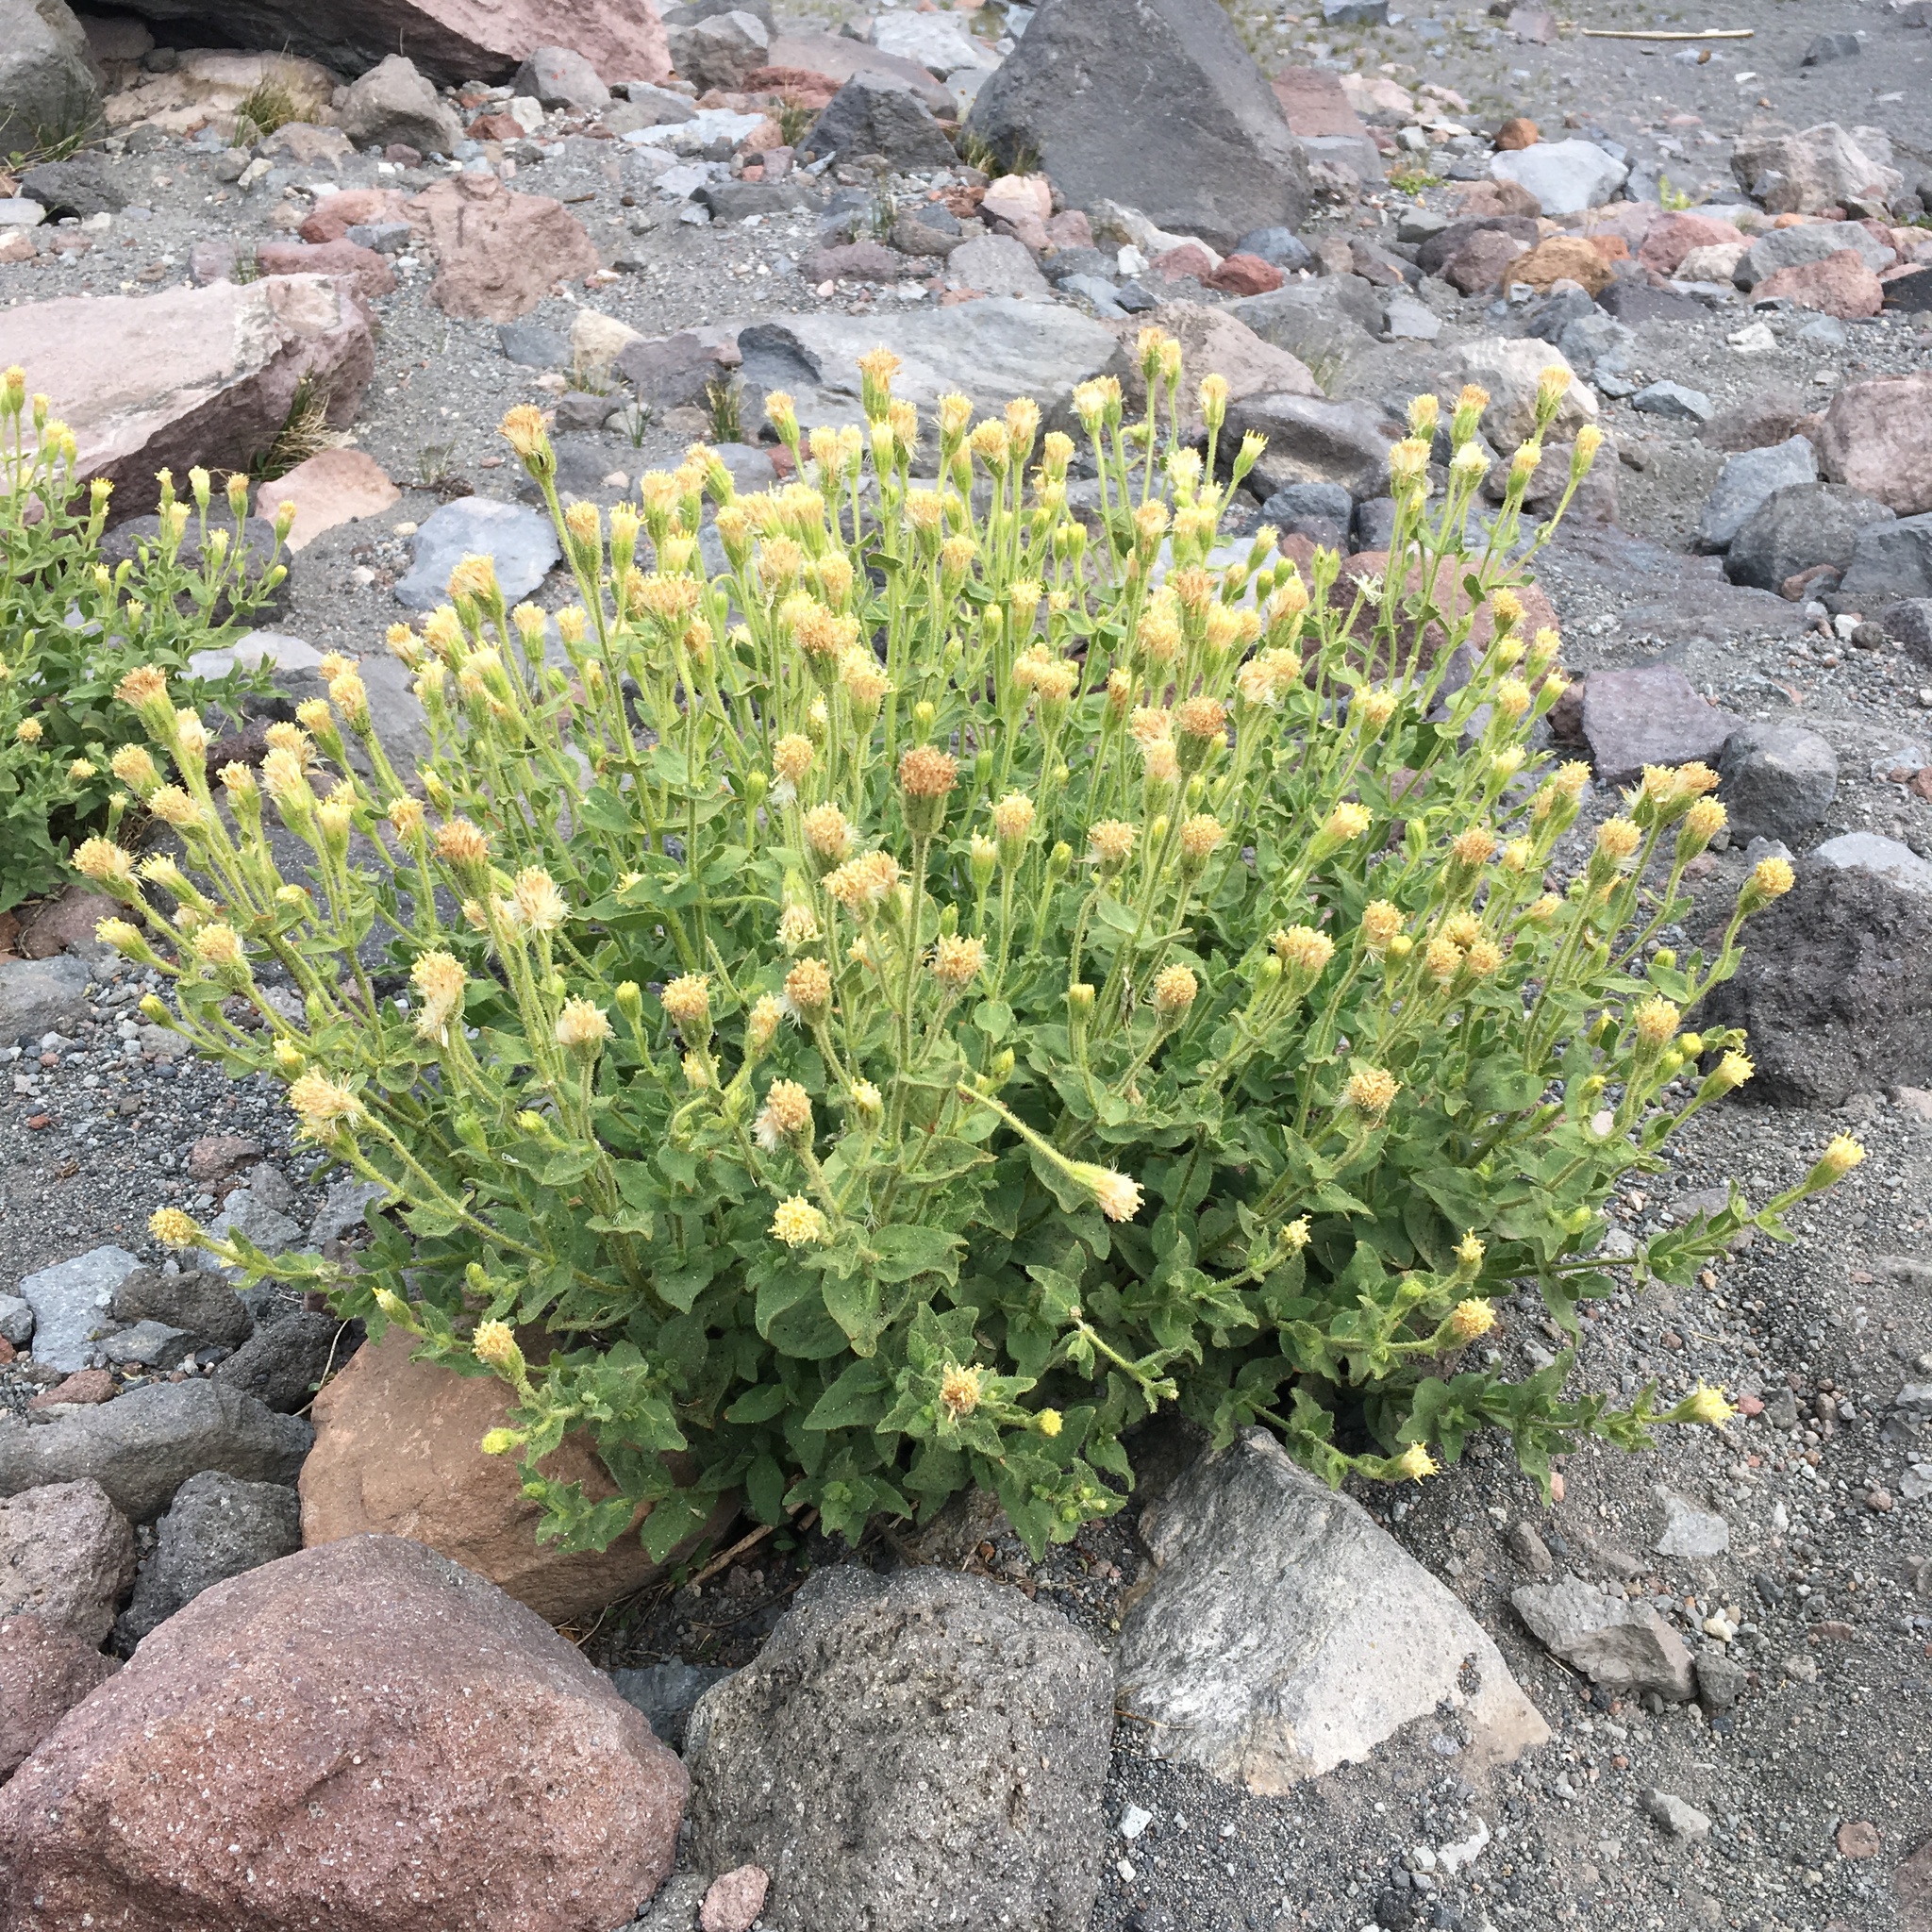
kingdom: Plantae
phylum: Tracheophyta
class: Magnoliopsida
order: Asterales
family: Asteraceae
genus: Arnica
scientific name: Arnica viscosa
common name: Mt. shasta arnica
